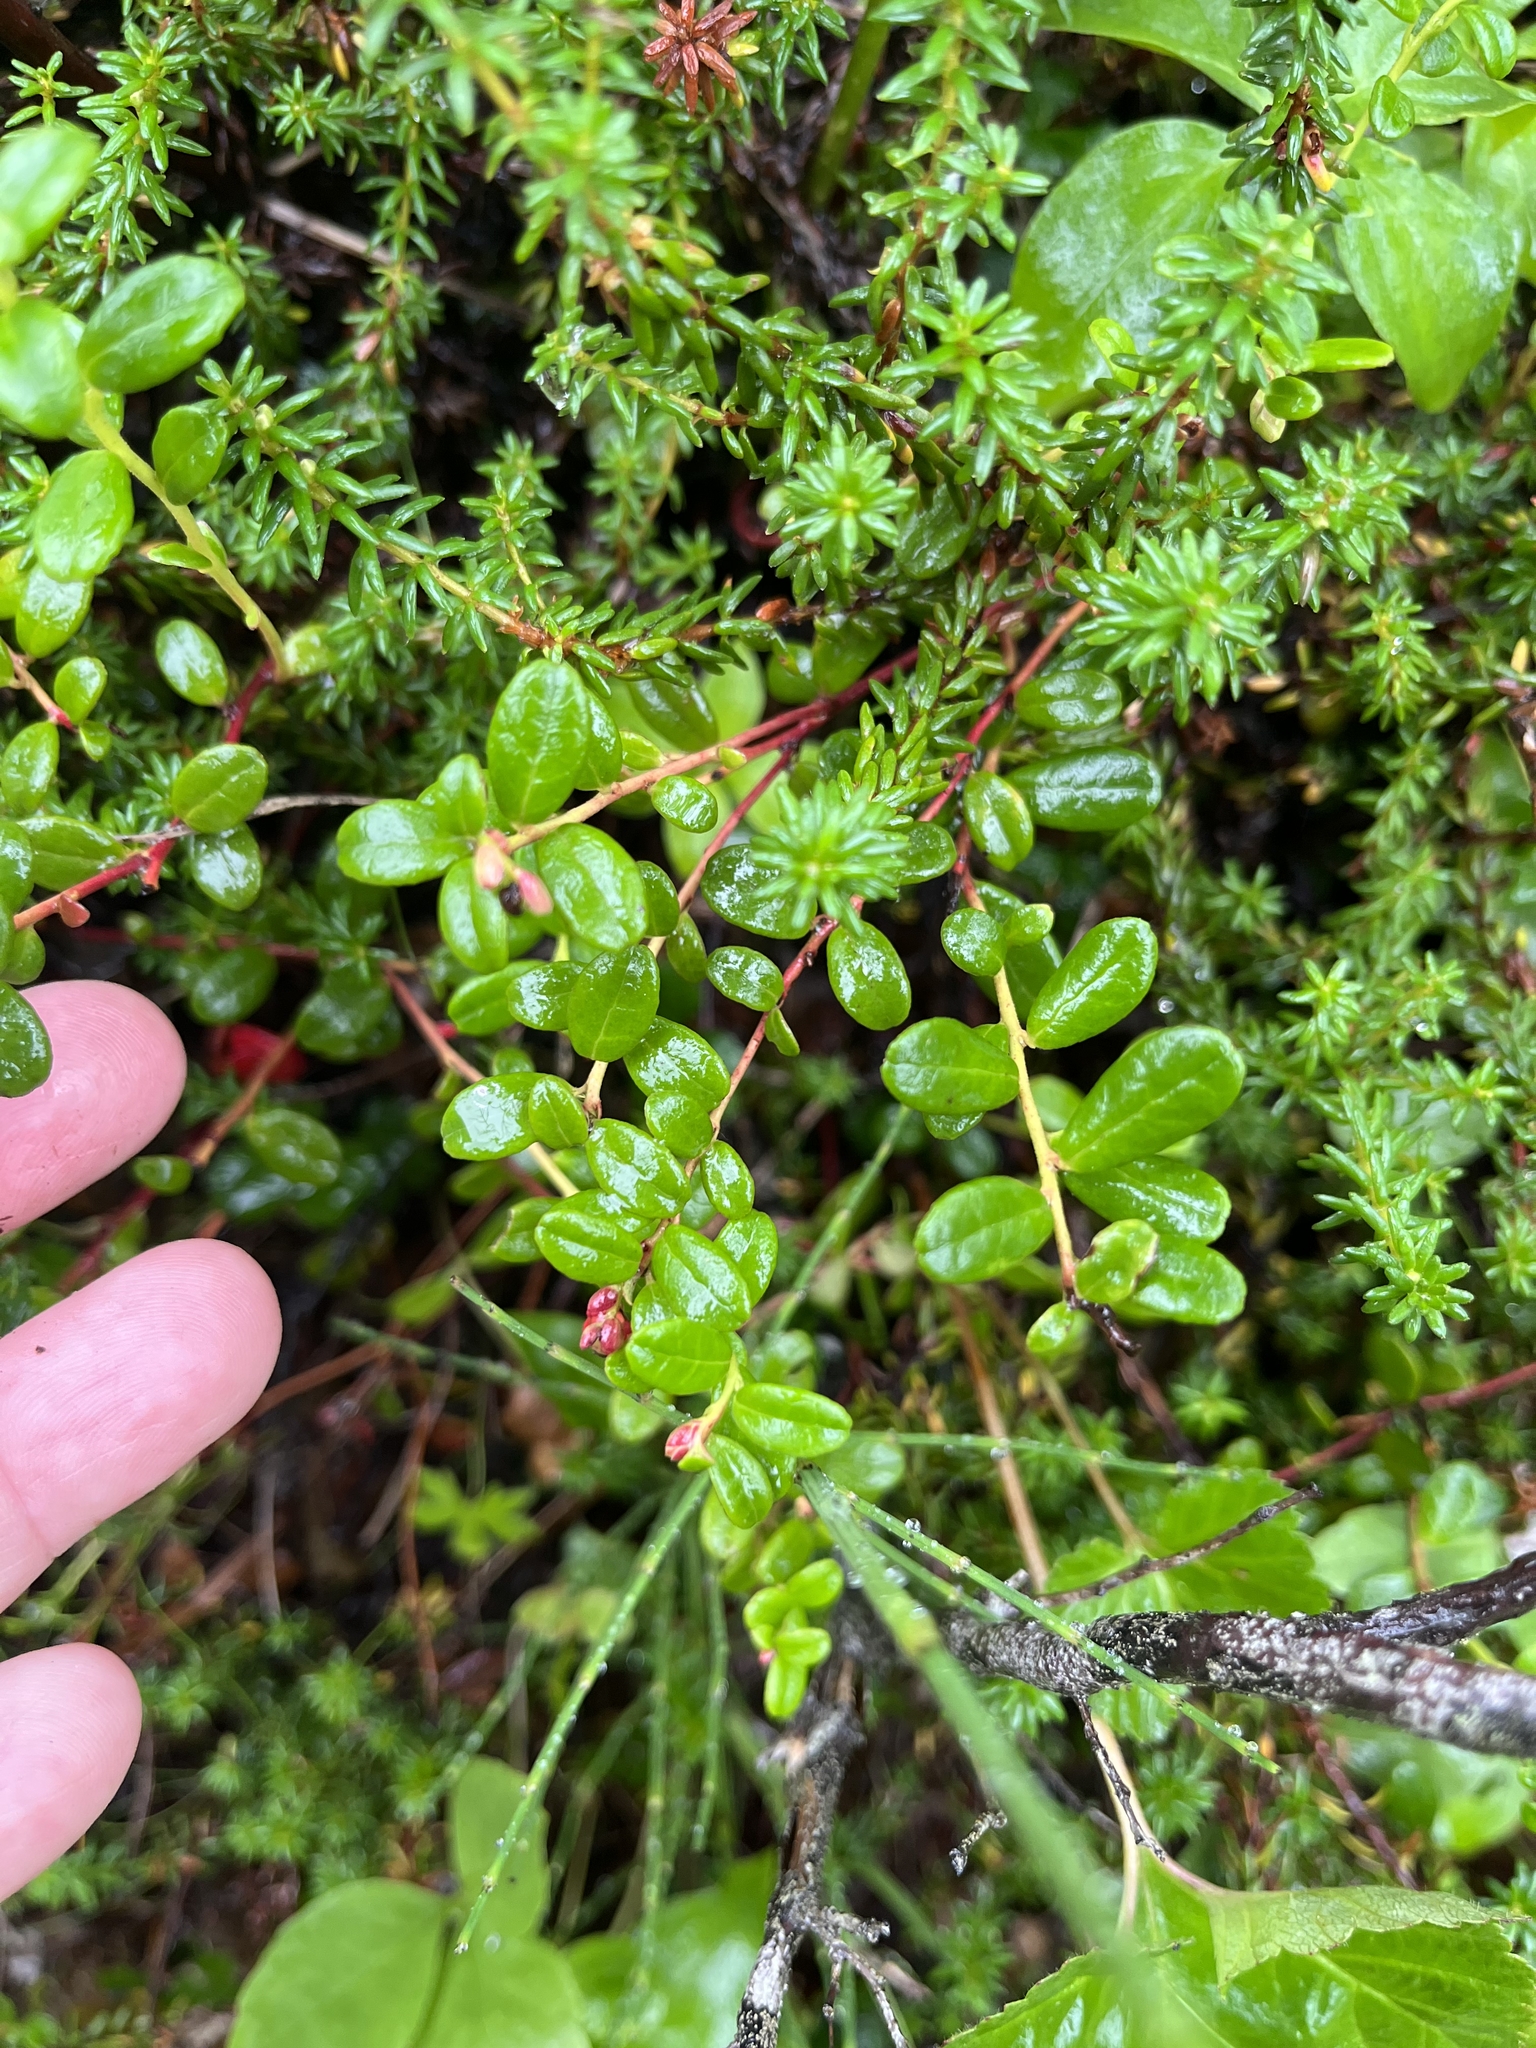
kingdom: Plantae
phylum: Tracheophyta
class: Magnoliopsida
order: Ericales
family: Ericaceae
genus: Vaccinium
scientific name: Vaccinium vitis-idaea
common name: Cowberry
